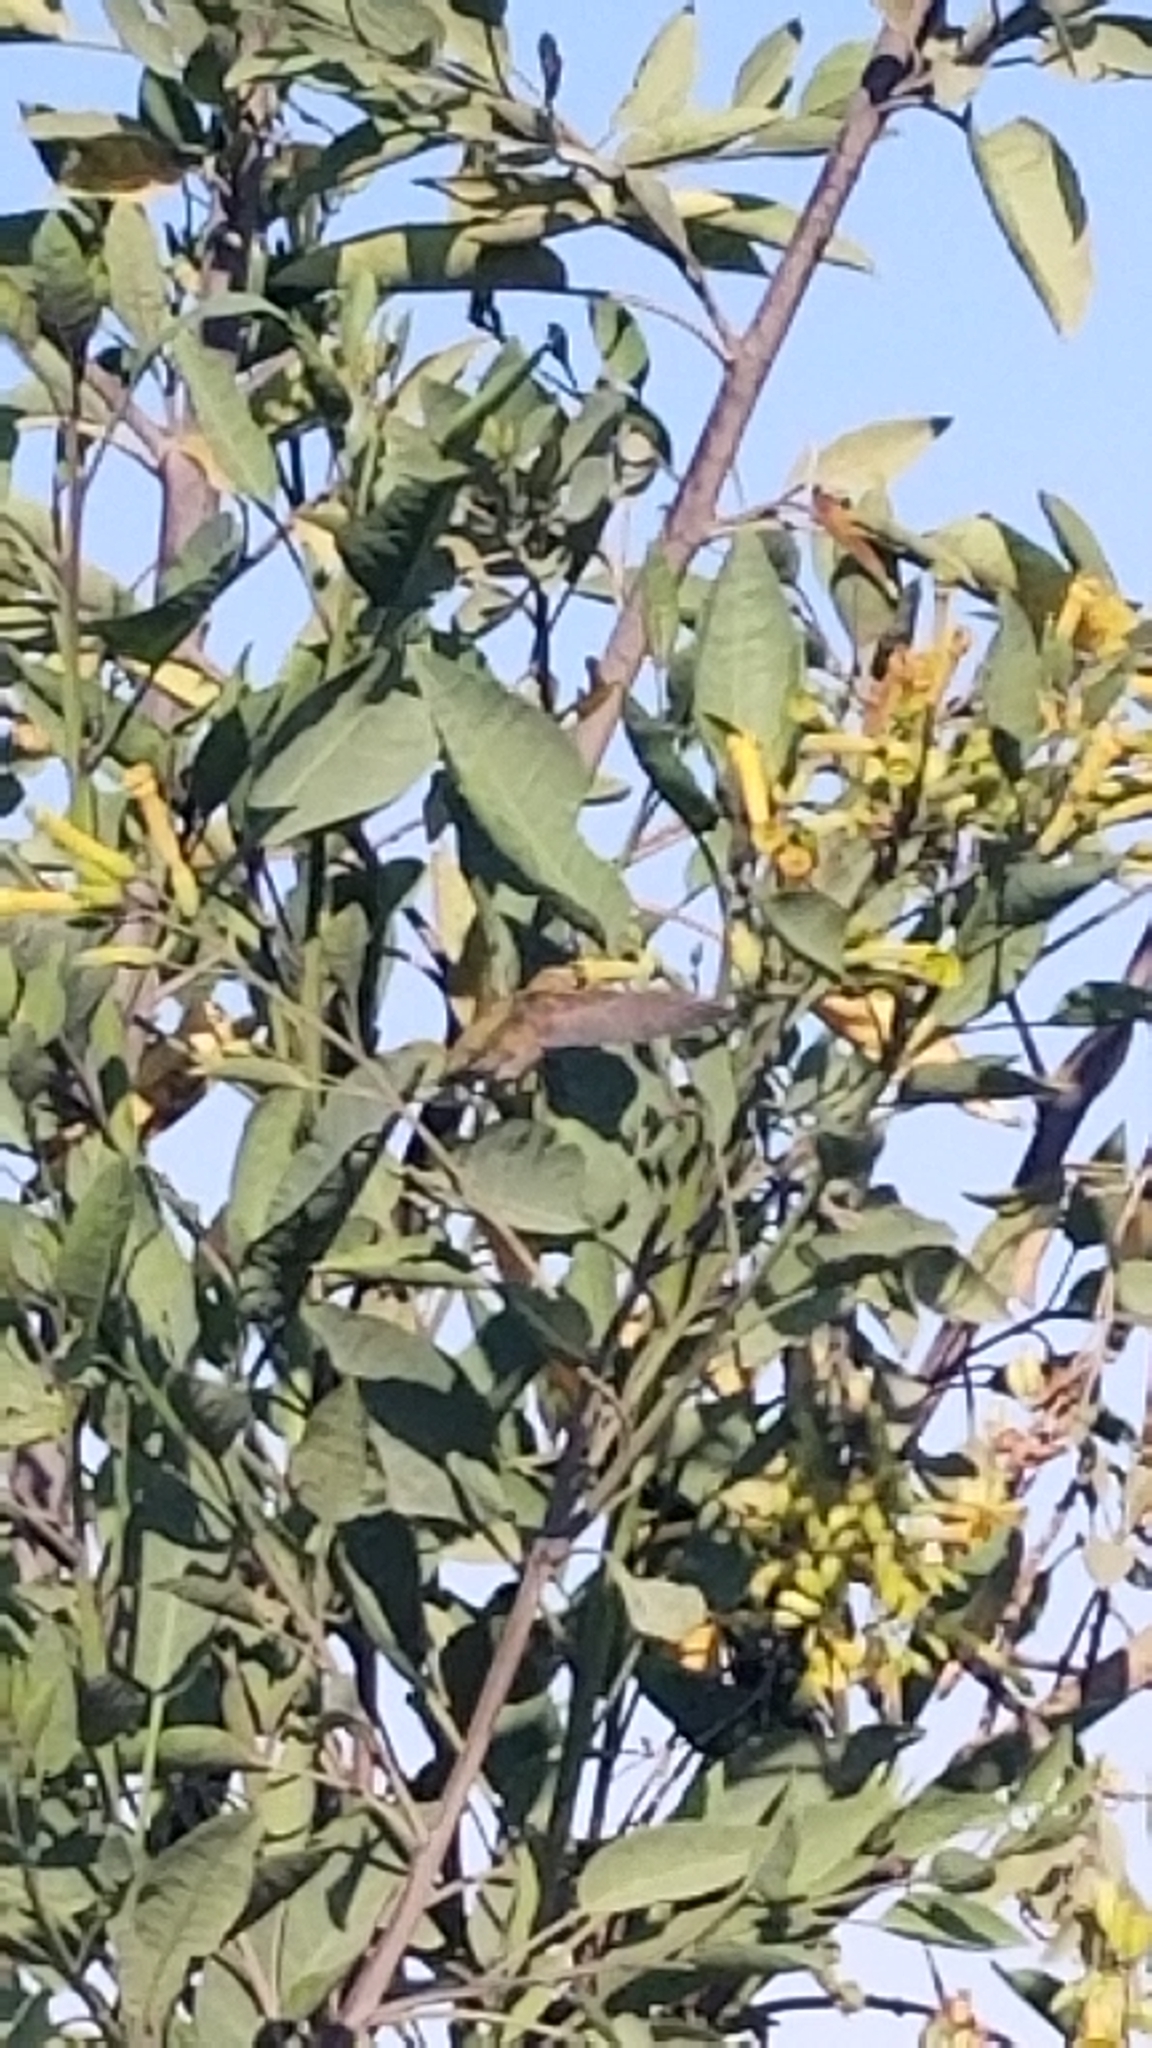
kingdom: Animalia
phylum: Chordata
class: Aves
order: Apodiformes
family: Trochilidae
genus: Calypte
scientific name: Calypte anna
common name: Anna's hummingbird
